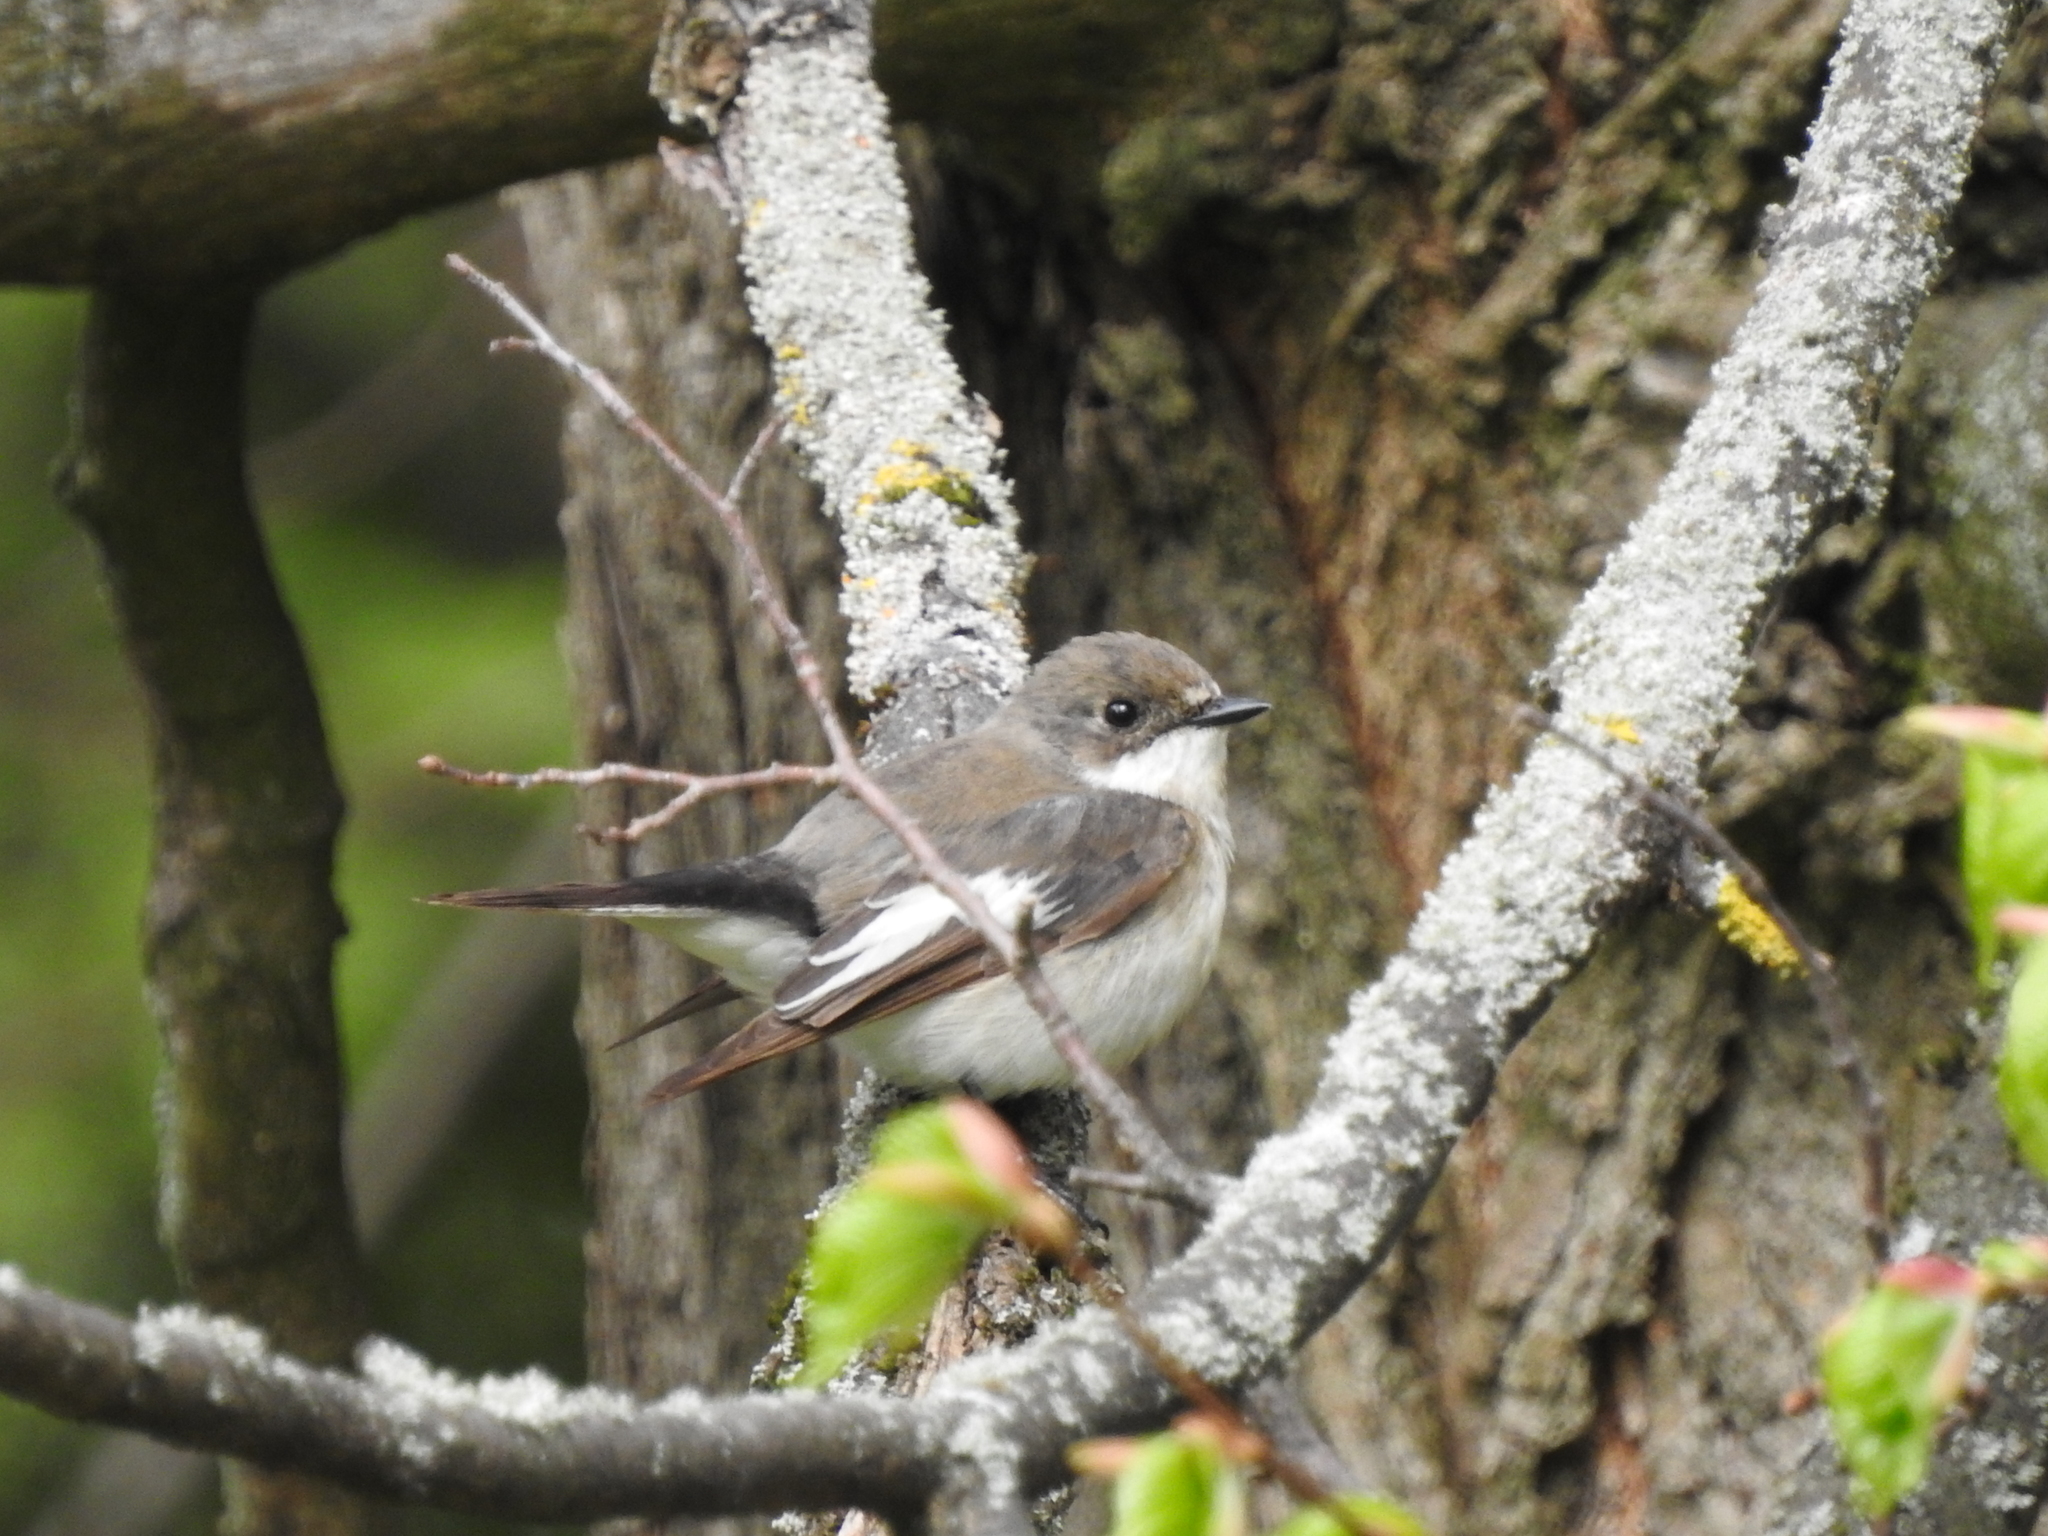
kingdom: Animalia
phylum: Chordata
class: Aves
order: Passeriformes
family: Muscicapidae
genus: Ficedula
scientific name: Ficedula hypoleuca
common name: European pied flycatcher
